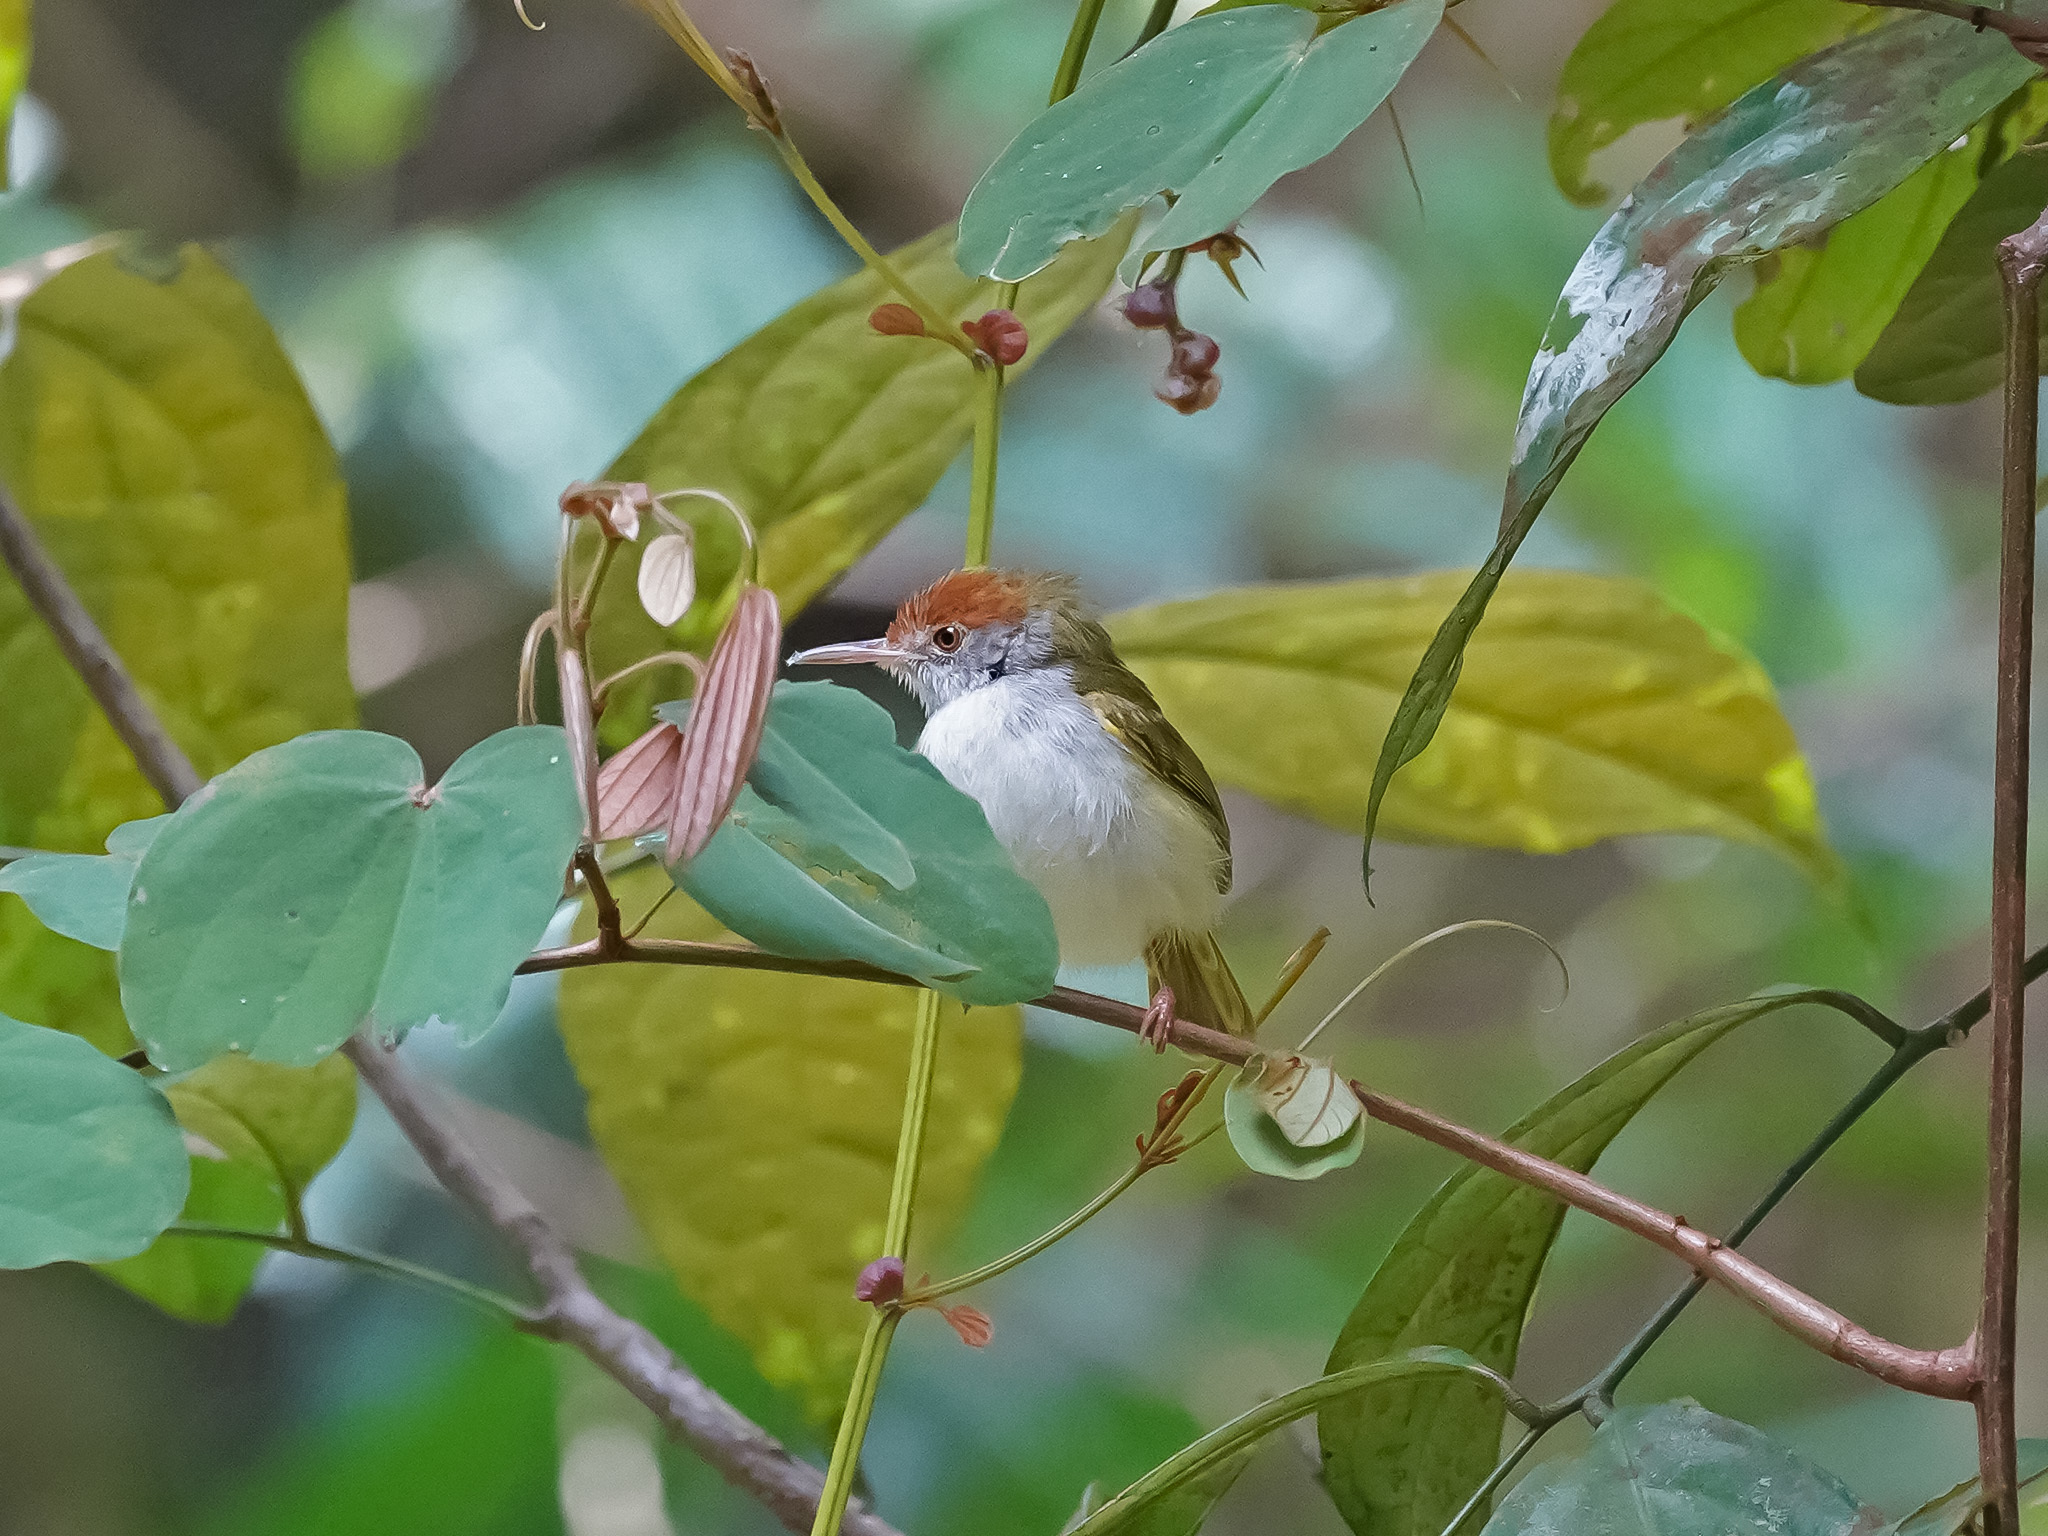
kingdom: Animalia
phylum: Chordata
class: Aves
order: Passeriformes
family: Cisticolidae
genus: Orthotomus
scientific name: Orthotomus sutorius
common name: Common tailorbird
